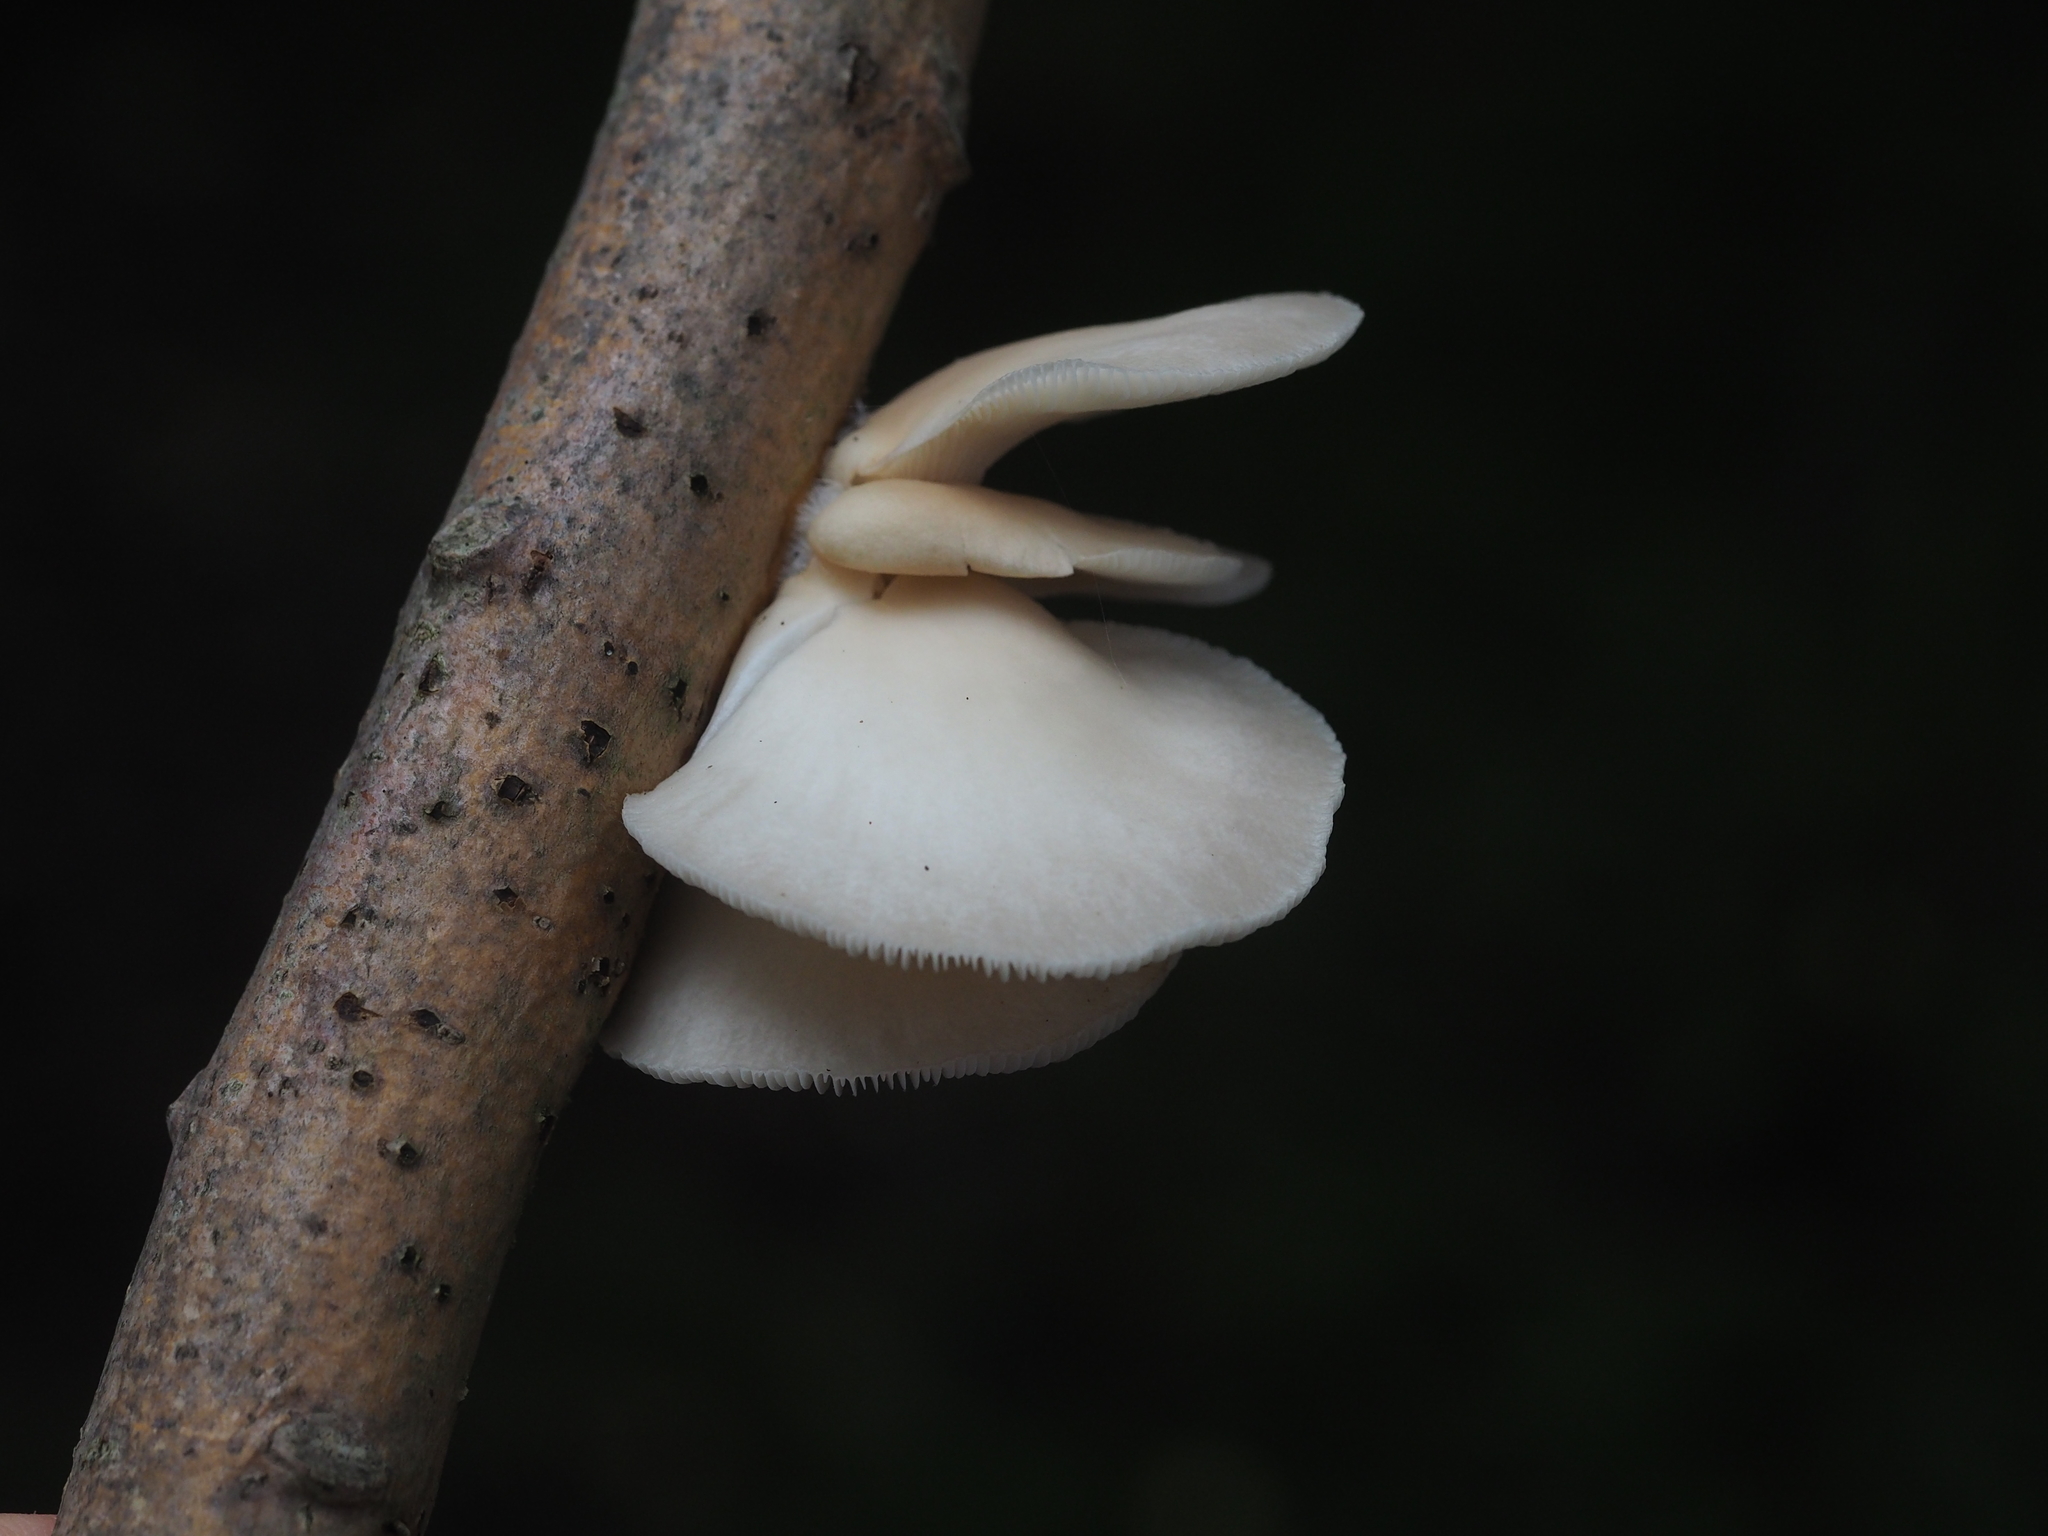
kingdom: Fungi
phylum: Basidiomycota
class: Agaricomycetes
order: Agaricales
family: Pleurotaceae
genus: Pleurotus
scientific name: Pleurotus pulmonarius
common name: Pale oyster
